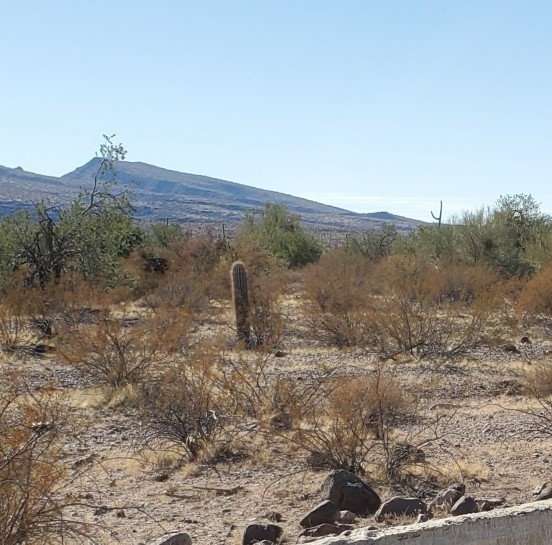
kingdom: Plantae
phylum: Tracheophyta
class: Magnoliopsida
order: Caryophyllales
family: Cactaceae
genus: Carnegiea
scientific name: Carnegiea gigantea
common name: Saguaro
